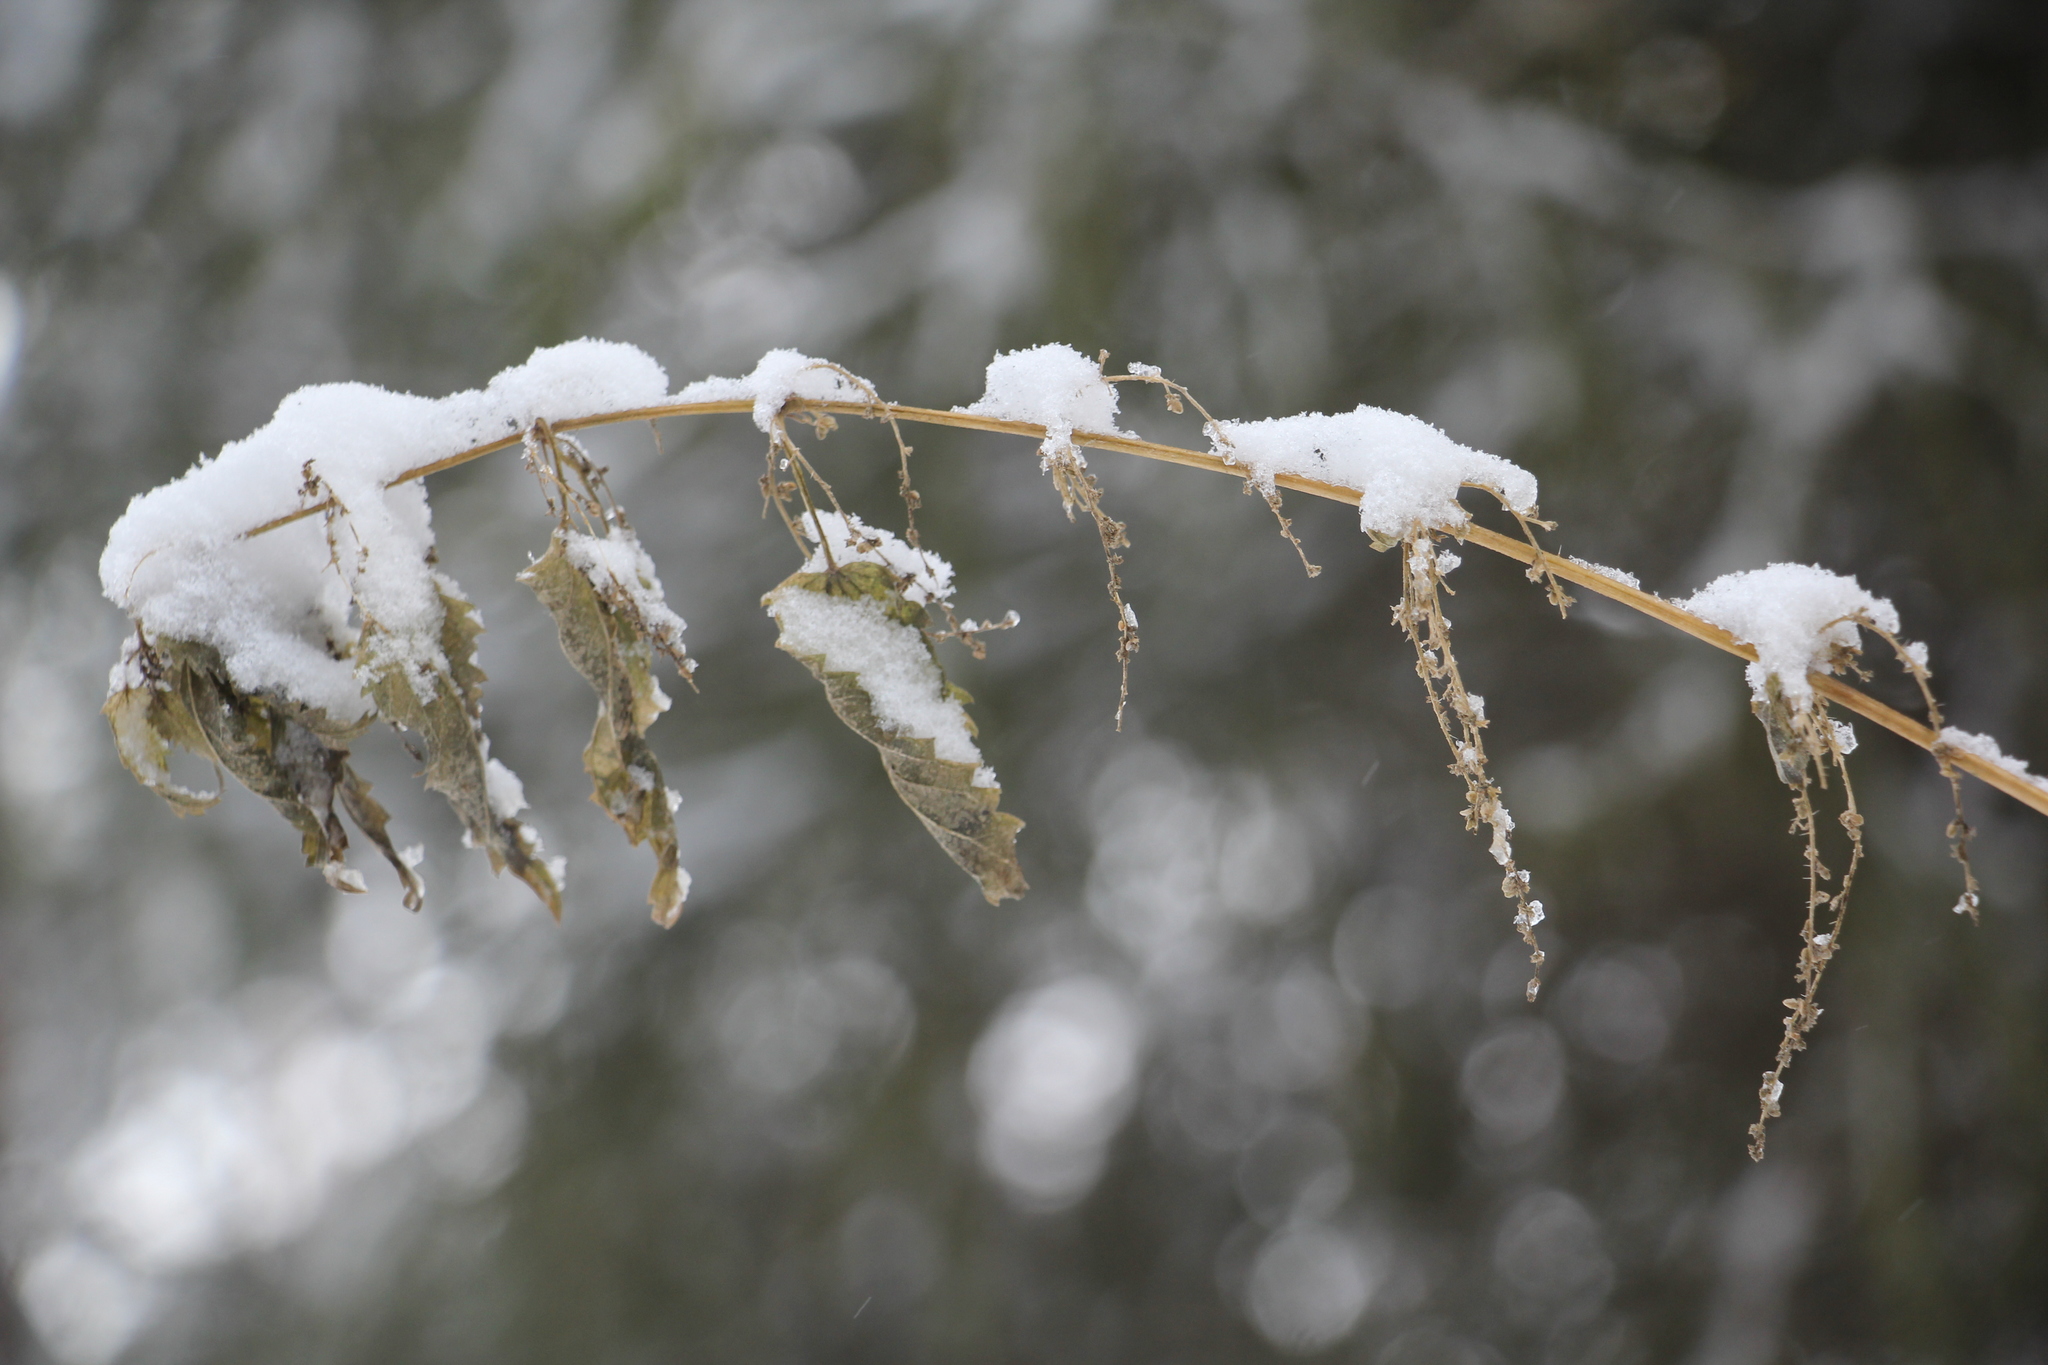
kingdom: Plantae
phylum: Tracheophyta
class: Magnoliopsida
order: Rosales
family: Urticaceae
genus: Urtica
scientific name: Urtica dioica
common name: Common nettle
